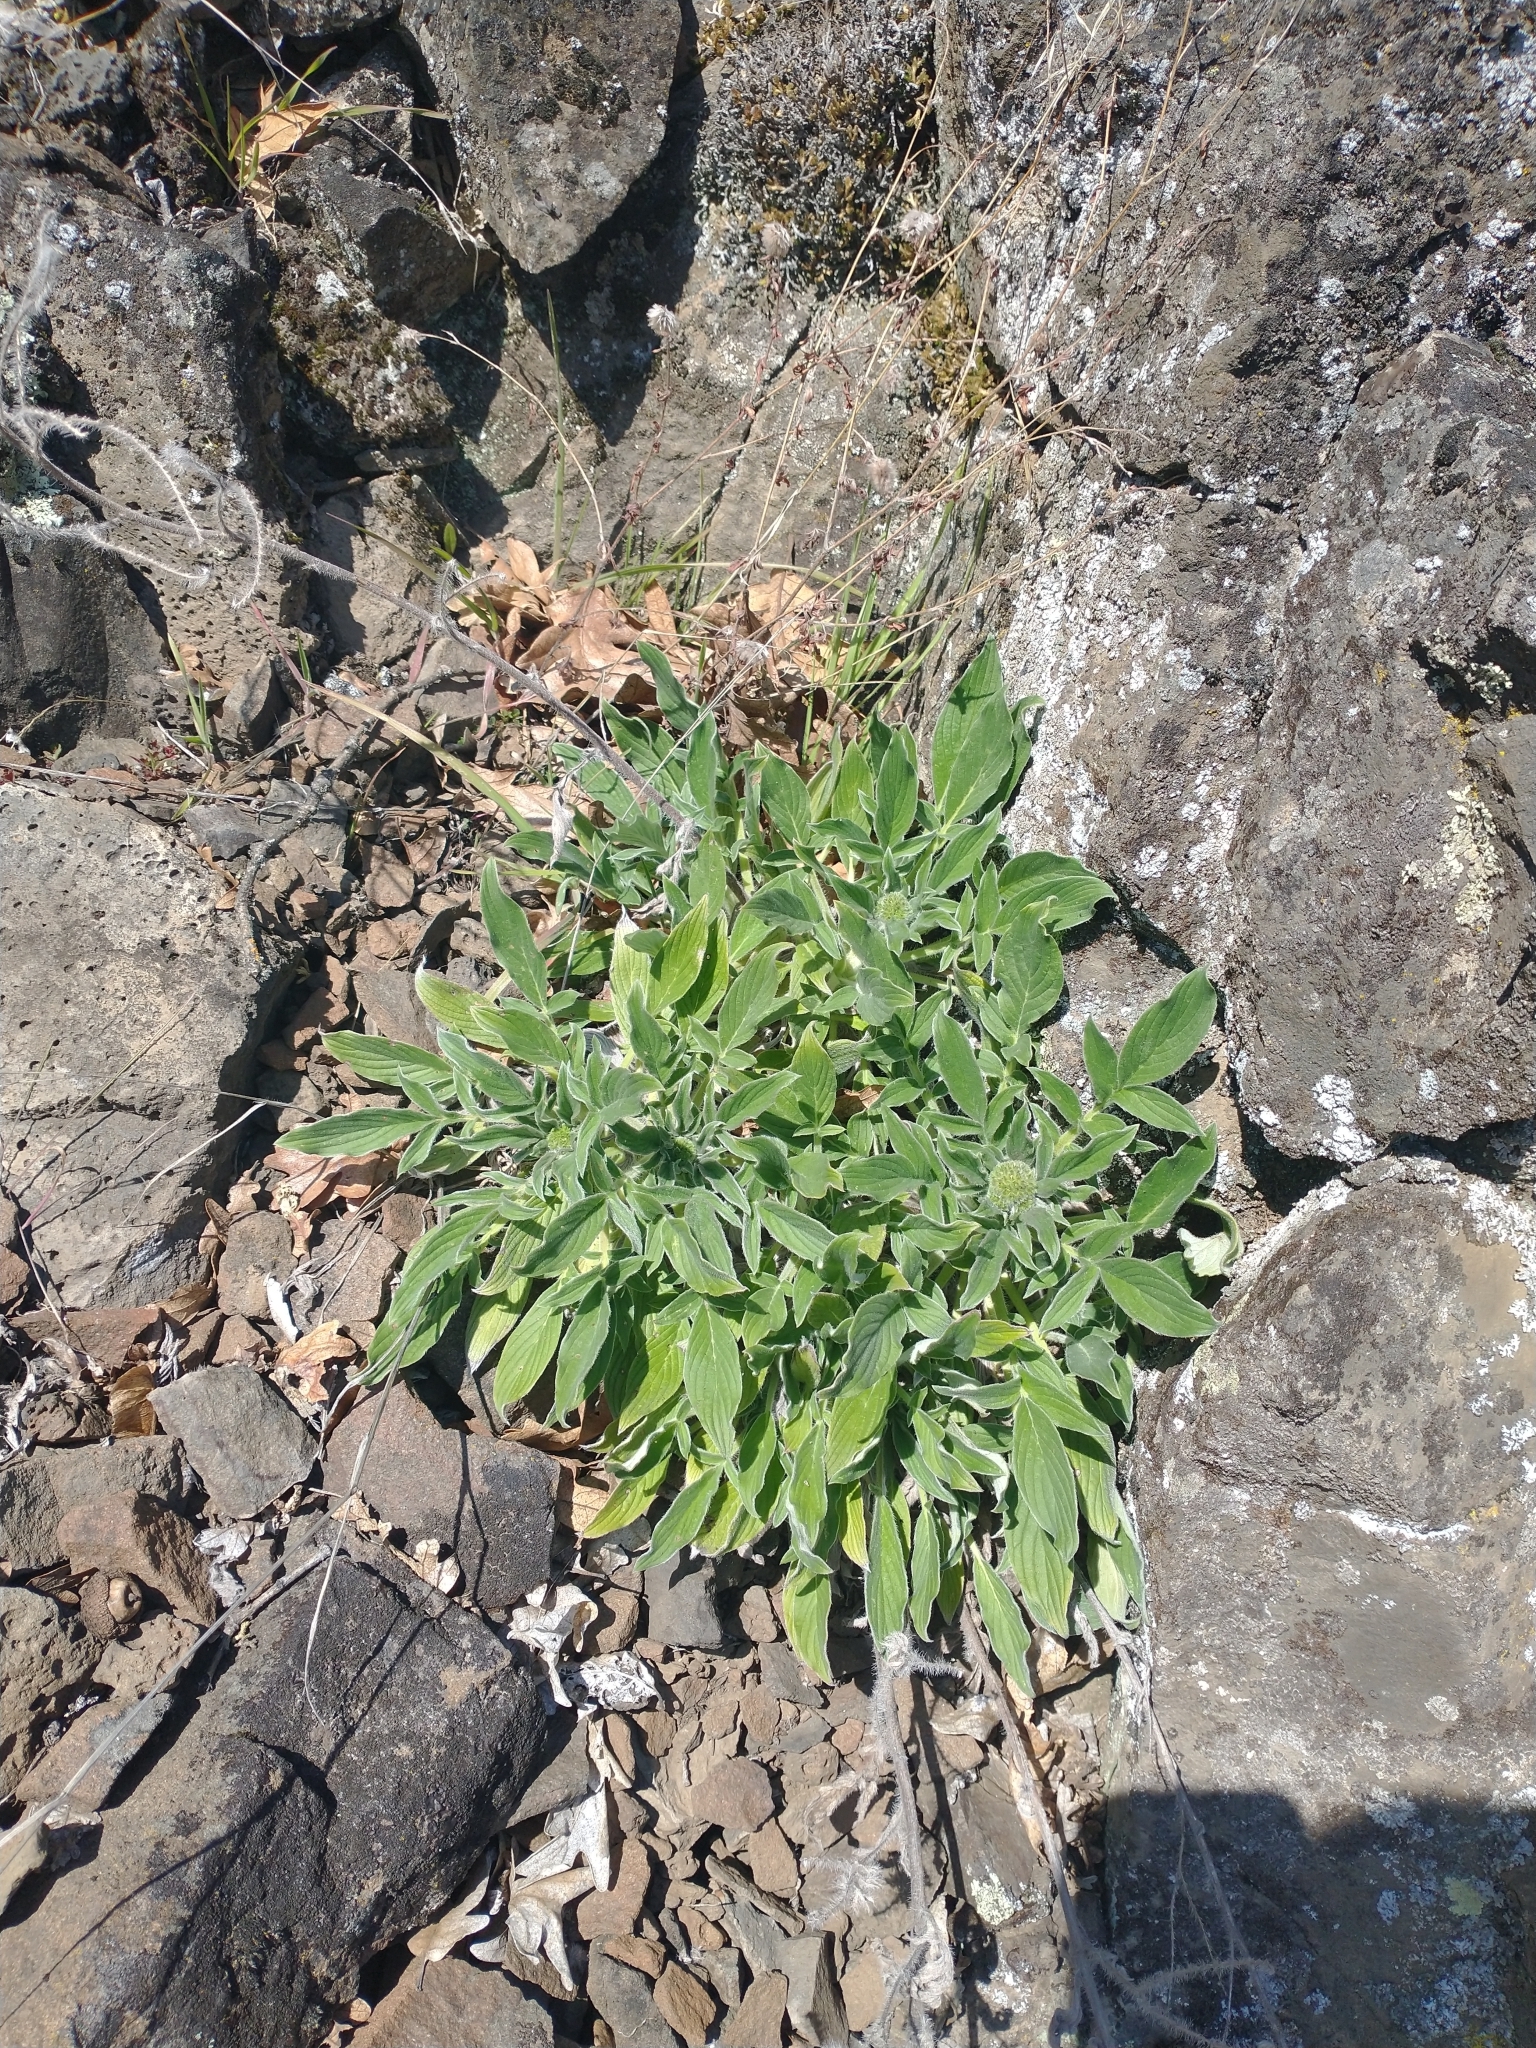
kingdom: Plantae
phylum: Tracheophyta
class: Magnoliopsida
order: Boraginales
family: Hydrophyllaceae
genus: Phacelia
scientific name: Phacelia hastata
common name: Silver-leaved phacelia
